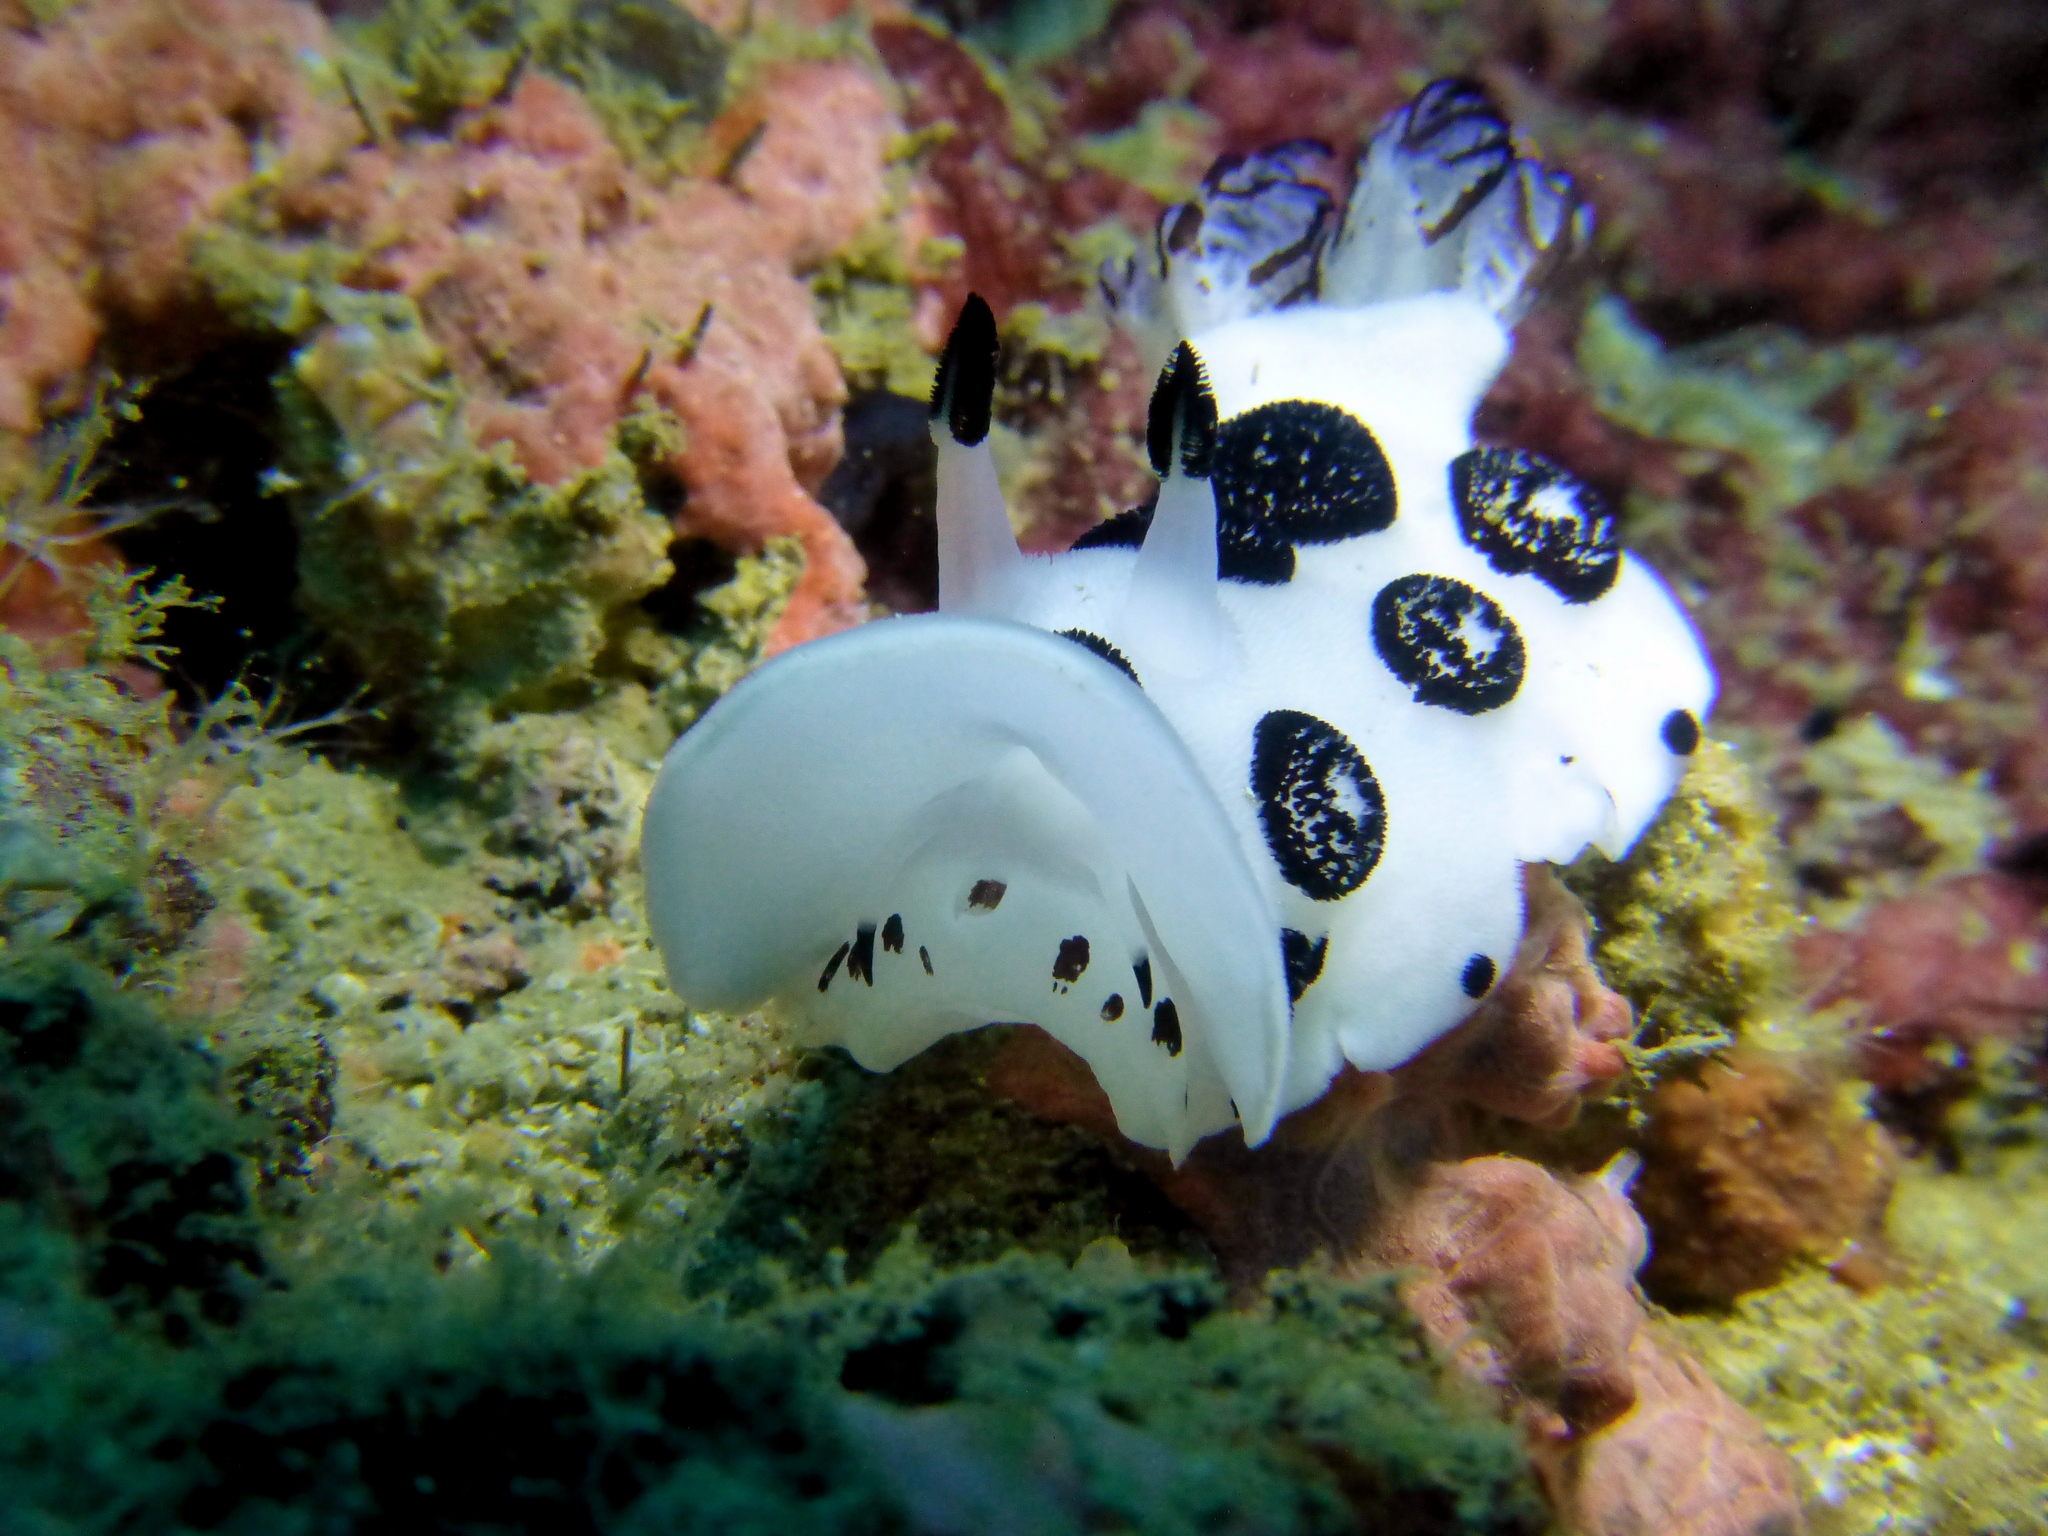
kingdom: Animalia
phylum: Mollusca
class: Gastropoda
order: Nudibranchia
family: Discodorididae
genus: Jorunna
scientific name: Jorunna funebris
